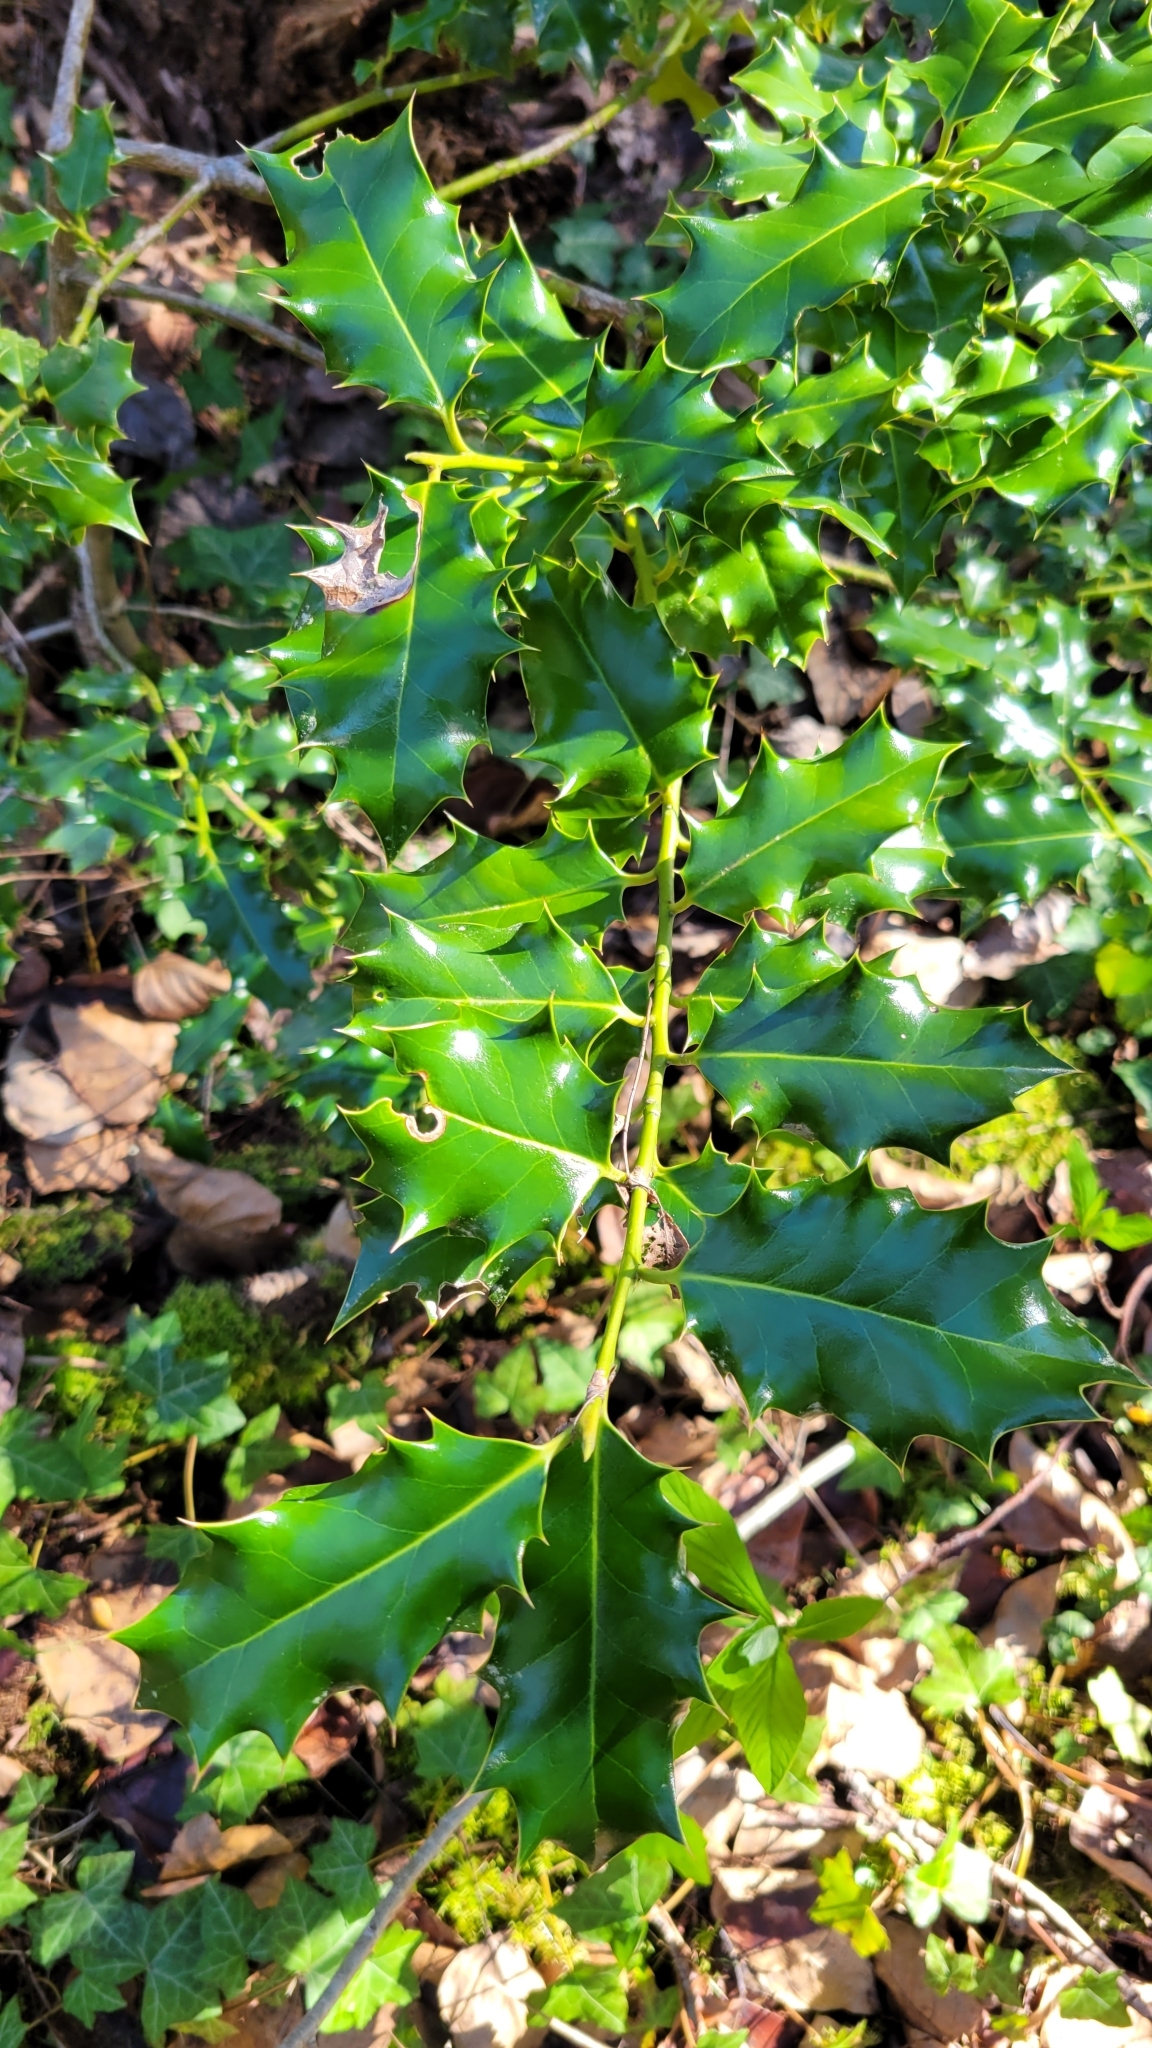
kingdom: Plantae
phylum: Tracheophyta
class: Magnoliopsida
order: Aquifoliales
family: Aquifoliaceae
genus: Ilex
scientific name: Ilex aquifolium
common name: English holly
